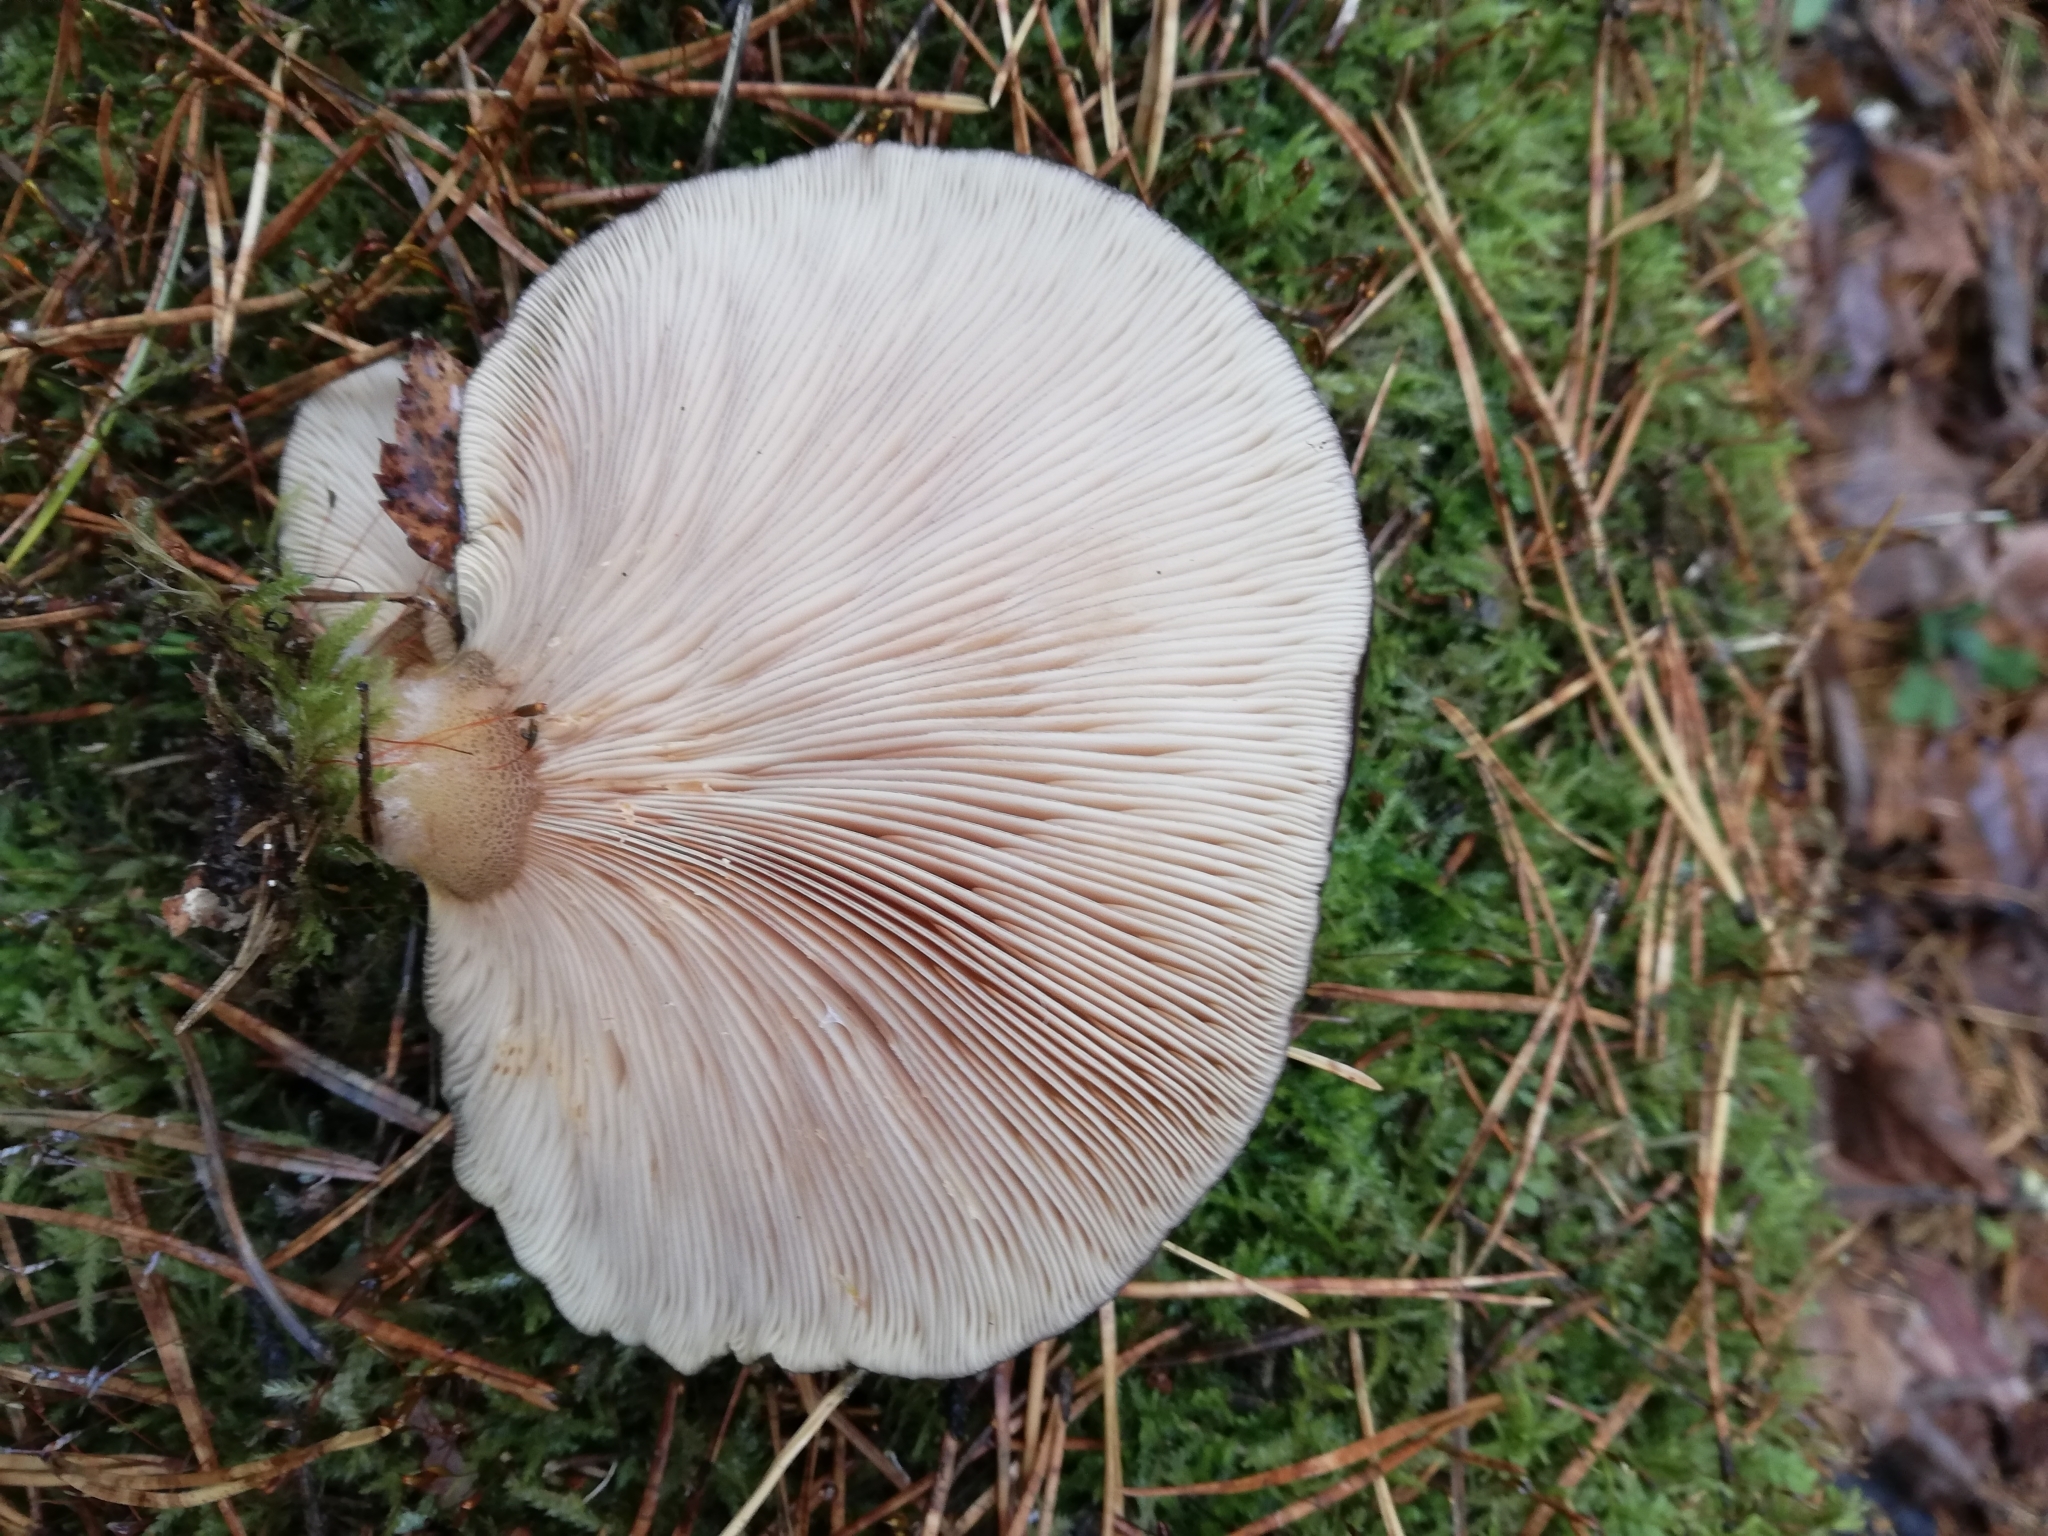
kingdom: Fungi
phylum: Basidiomycota
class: Agaricomycetes
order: Agaricales
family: Sarcomyxaceae
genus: Sarcomyxa
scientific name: Sarcomyxa serotina
